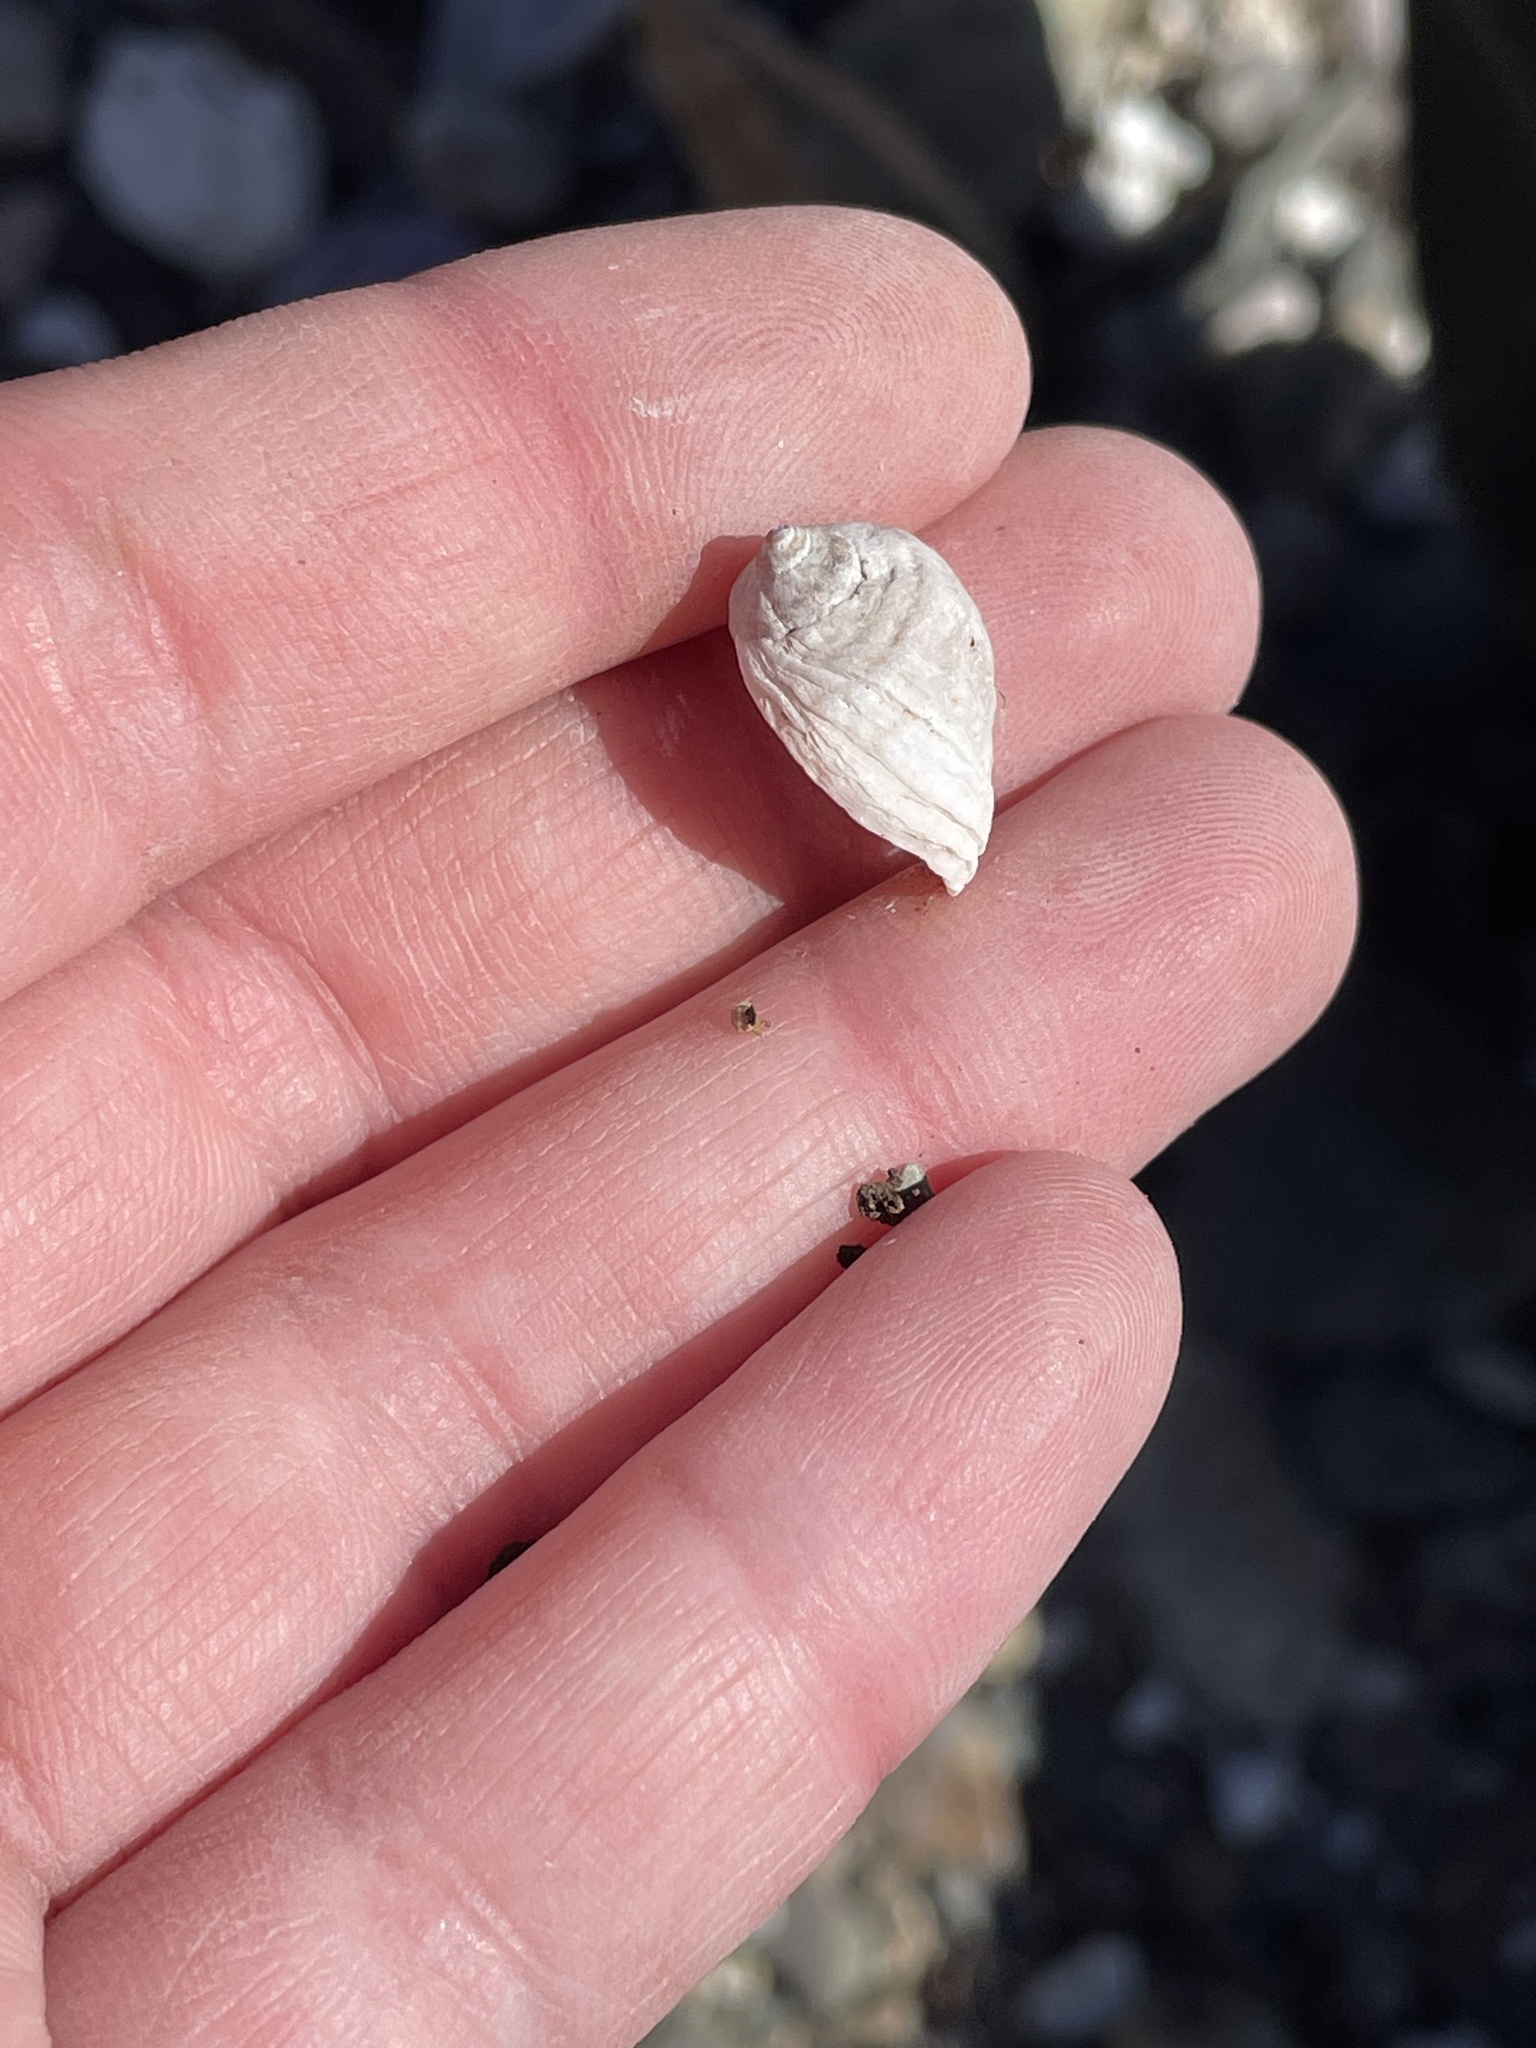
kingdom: Animalia
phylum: Mollusca
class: Gastropoda
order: Neogastropoda
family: Muricidae
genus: Nucella
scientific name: Nucella lapillus
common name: Dog whelk
